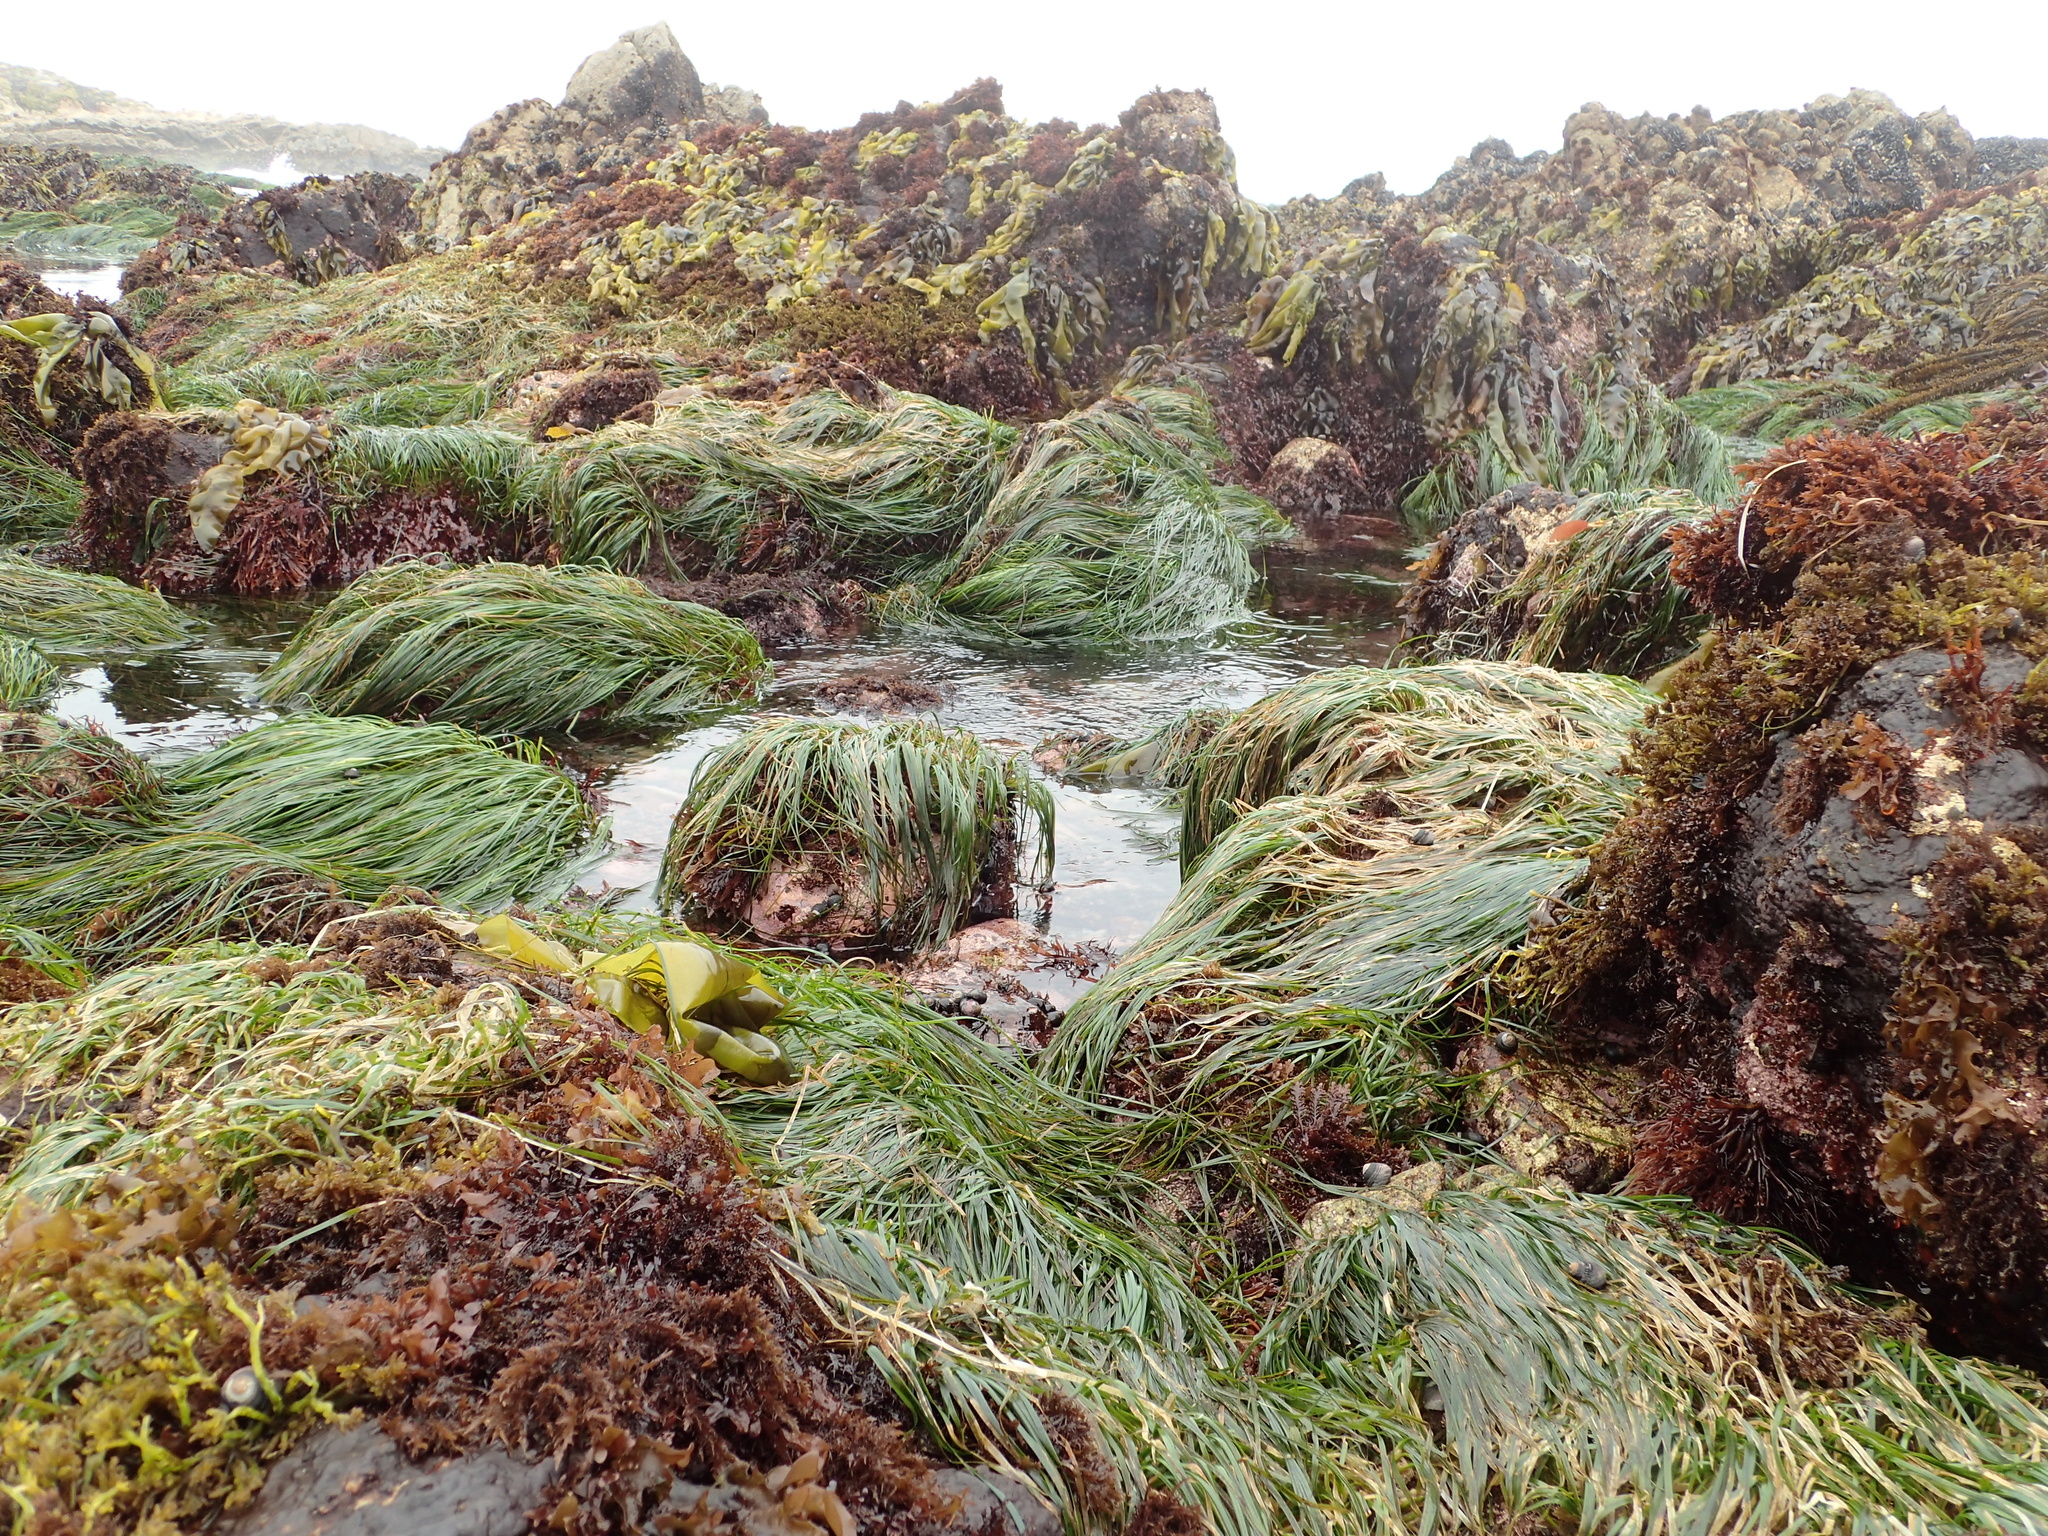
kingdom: Plantae
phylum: Tracheophyta
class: Liliopsida
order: Alismatales
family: Zosteraceae
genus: Phyllospadix
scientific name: Phyllospadix scouleri
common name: Species code: ps
